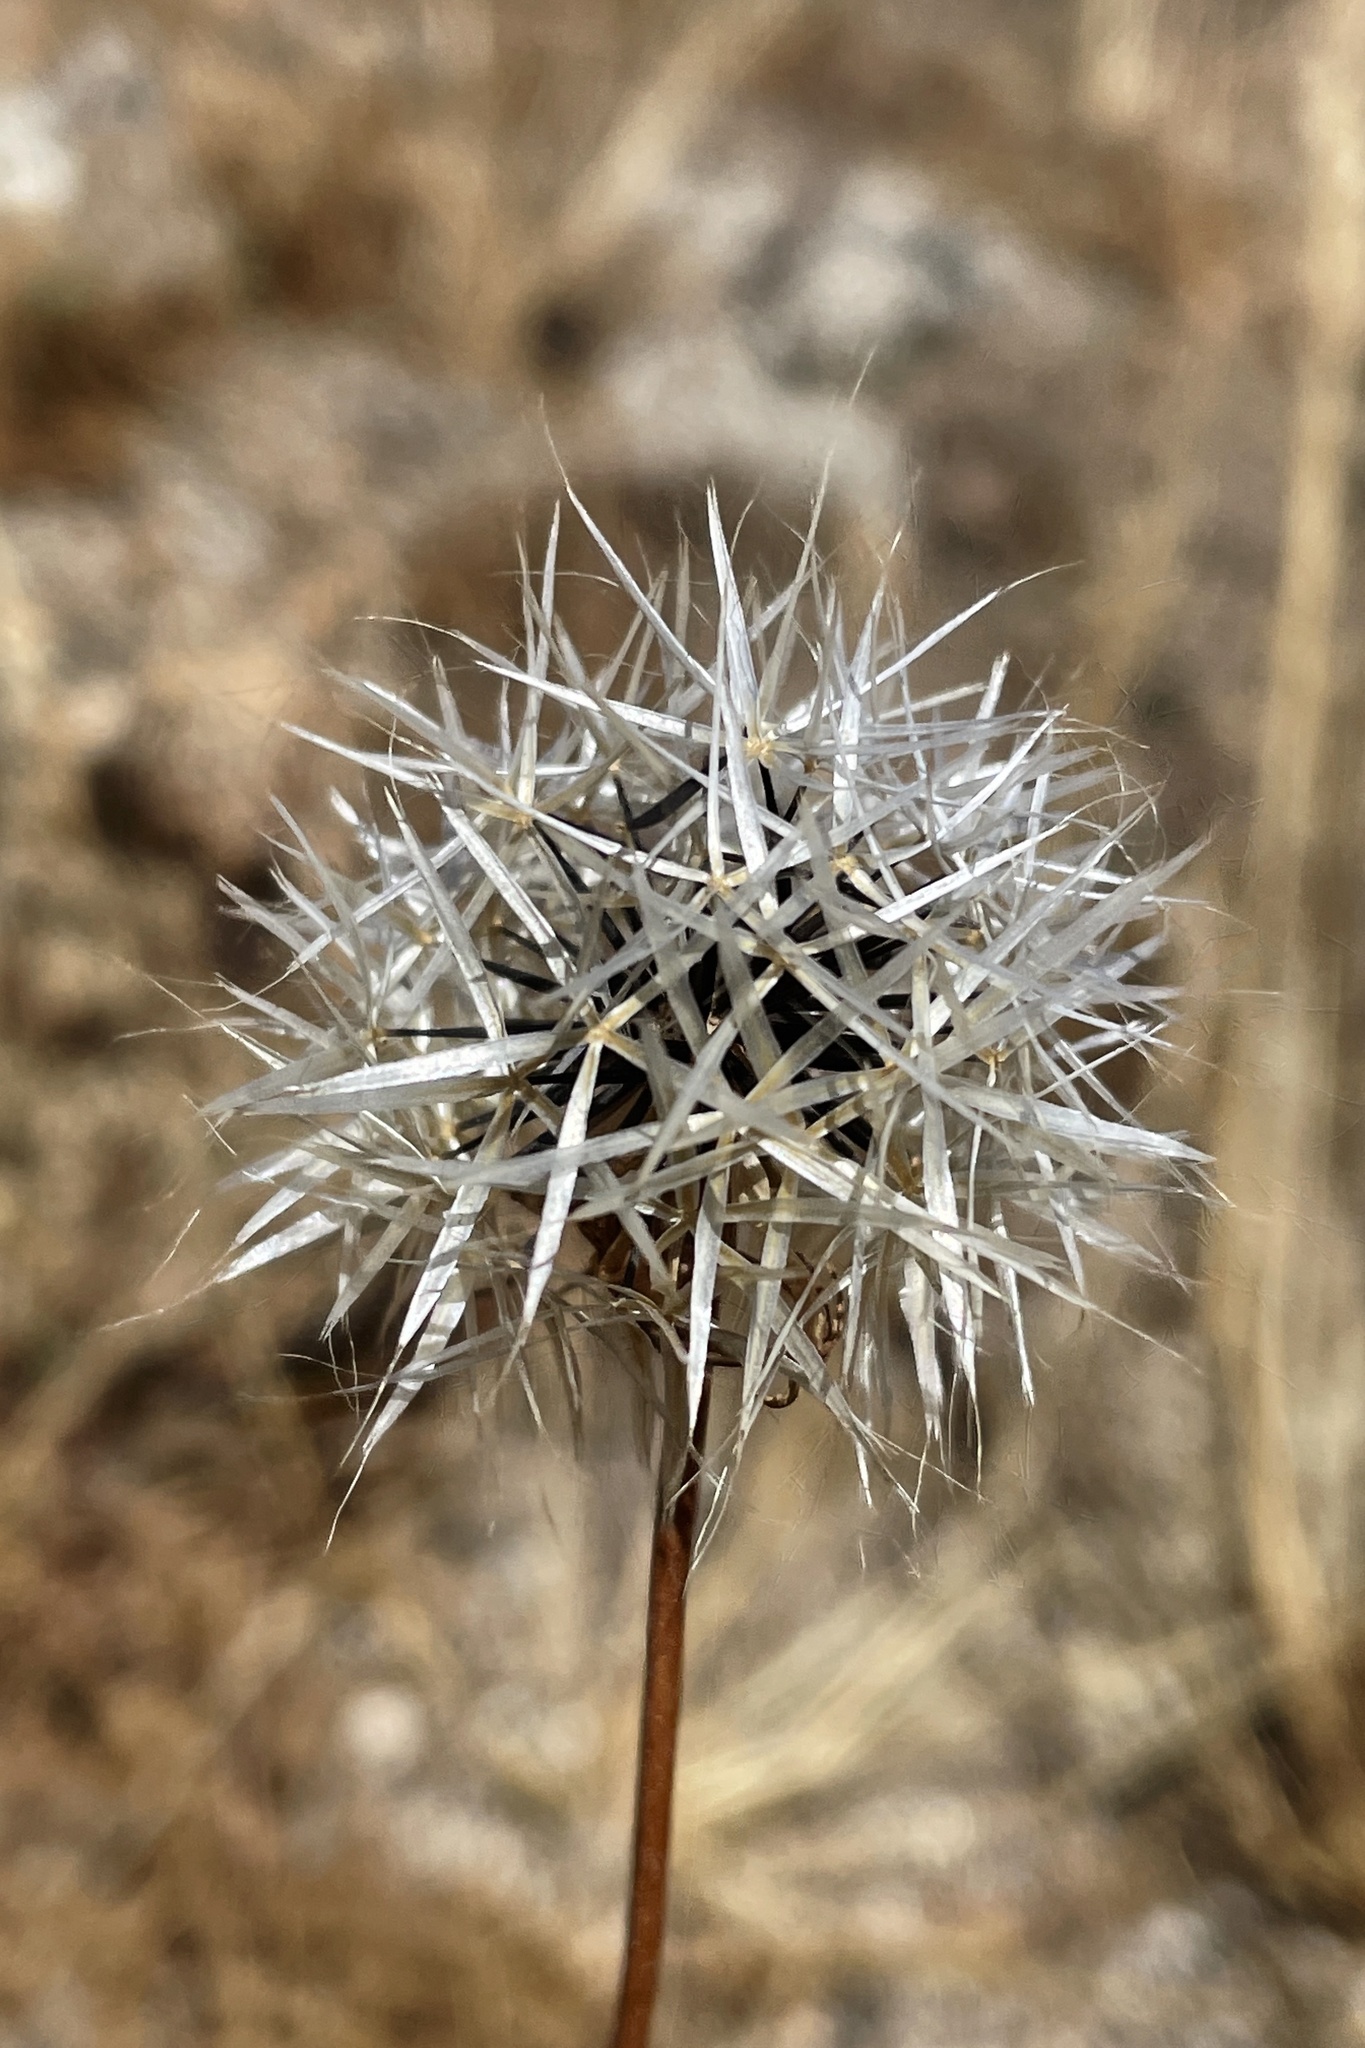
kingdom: Plantae
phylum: Tracheophyta
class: Magnoliopsida
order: Asterales
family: Asteraceae
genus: Microseris
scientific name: Microseris lindleyi
